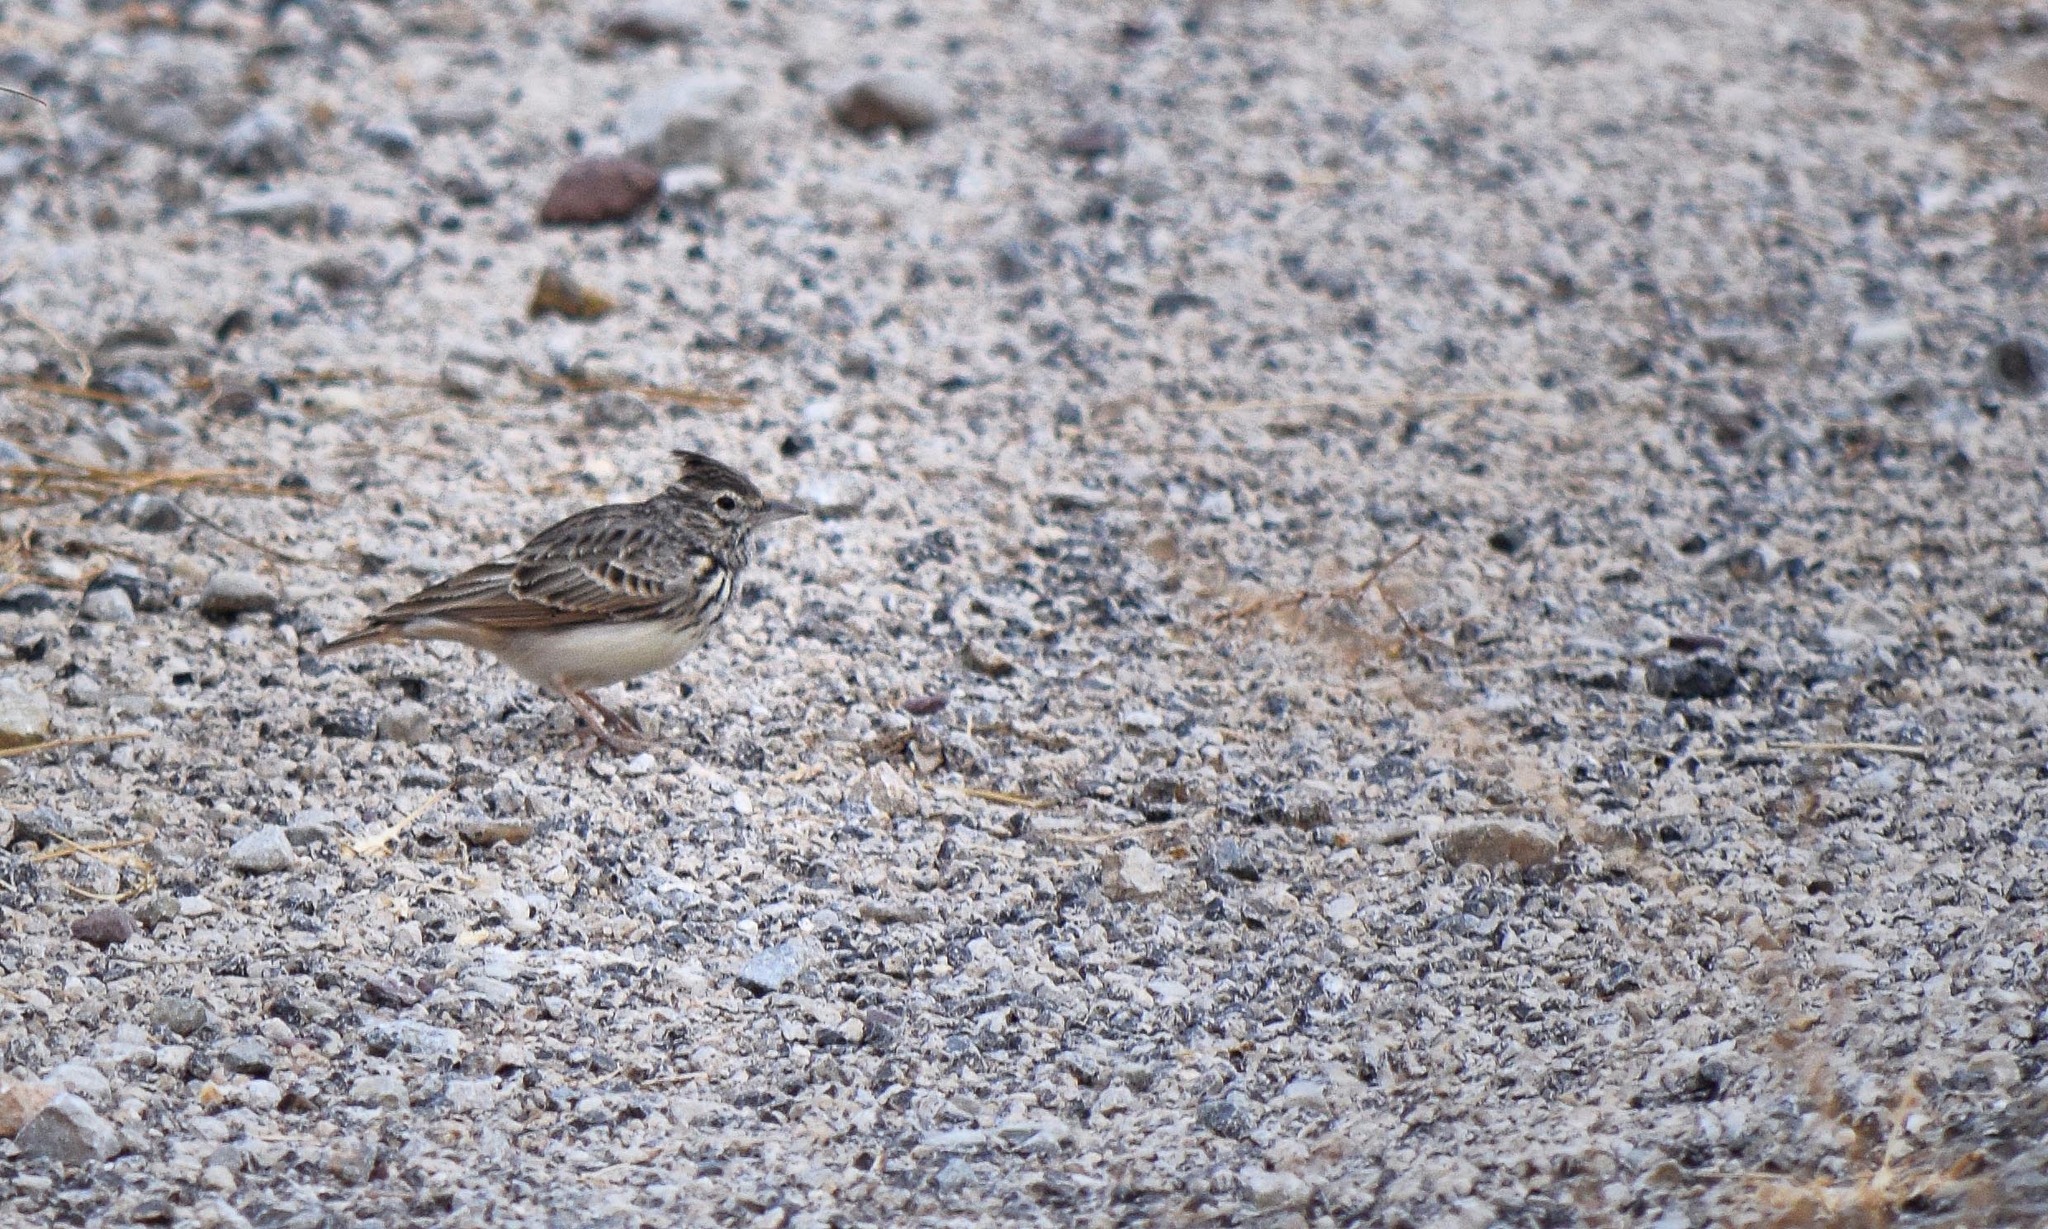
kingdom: Animalia
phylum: Chordata
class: Aves
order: Passeriformes
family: Alaudidae
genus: Galerida
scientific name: Galerida theklae
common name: Thekla lark
